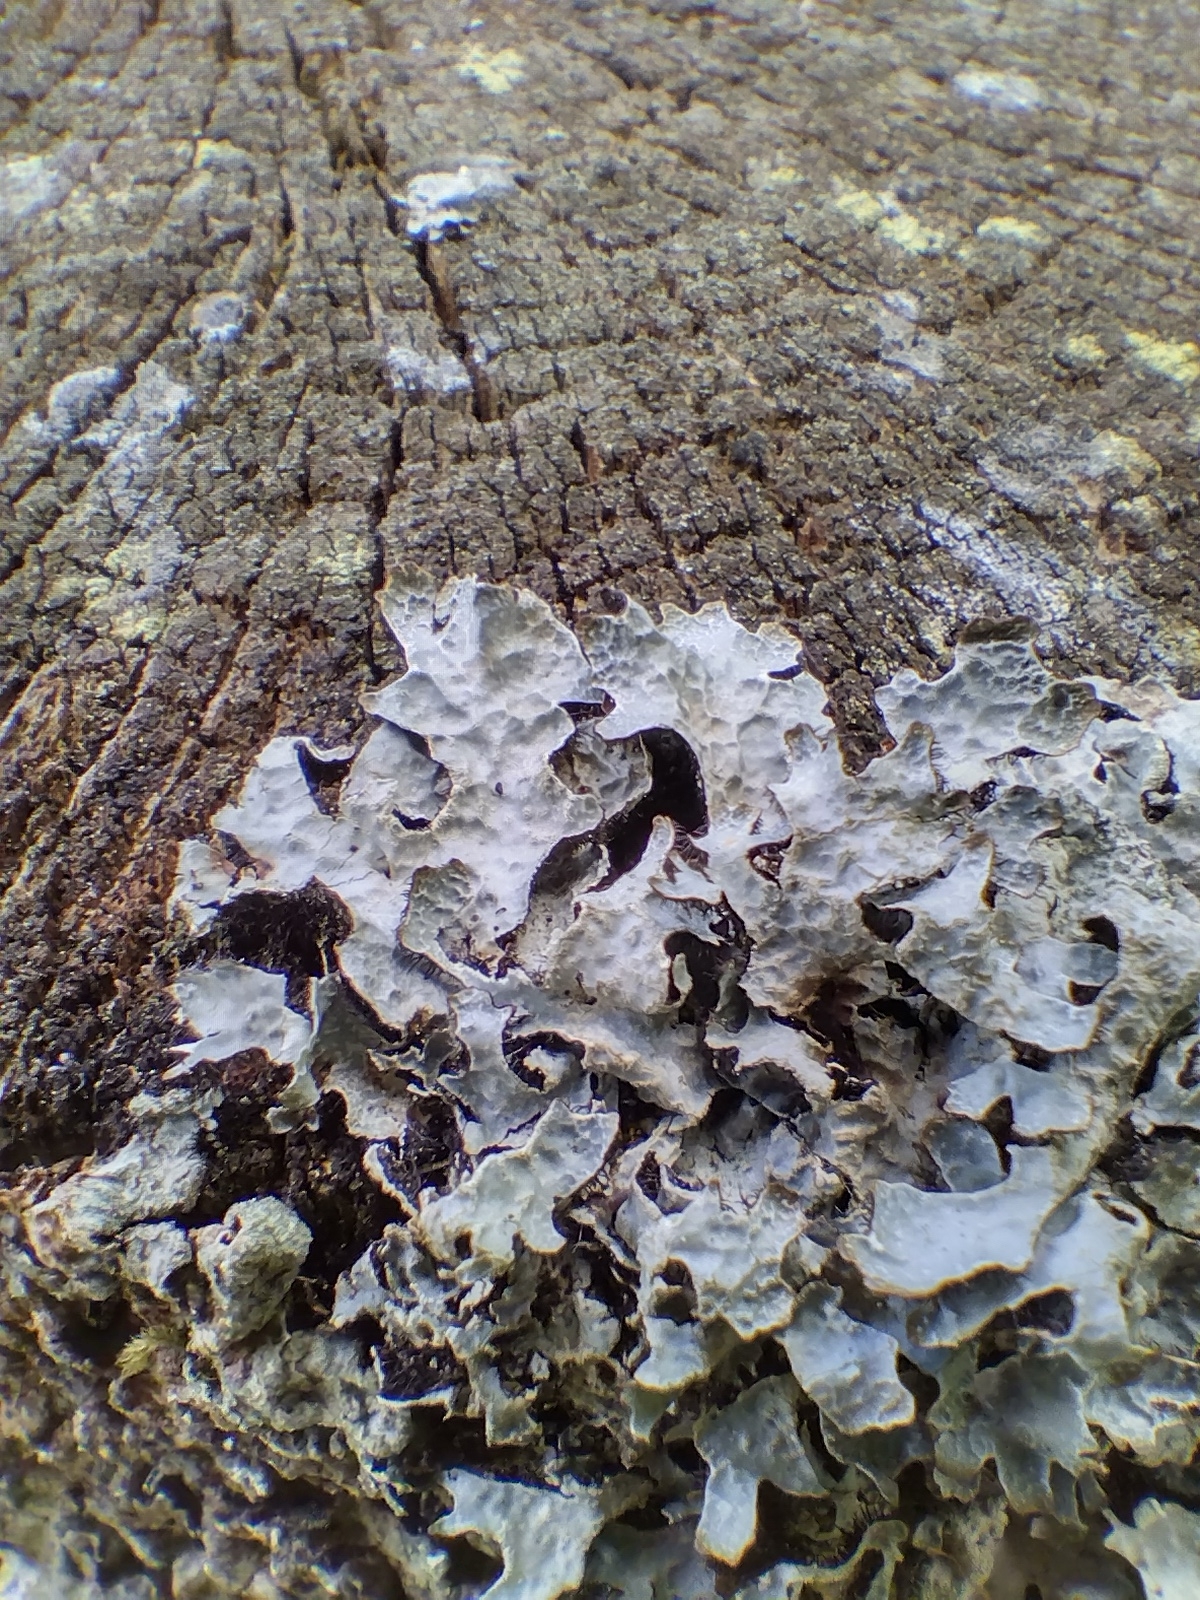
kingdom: Fungi
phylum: Ascomycota
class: Lecanoromycetes
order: Lecanorales
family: Parmeliaceae
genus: Parmelia
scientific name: Parmelia sulcata
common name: Netted shield lichen
